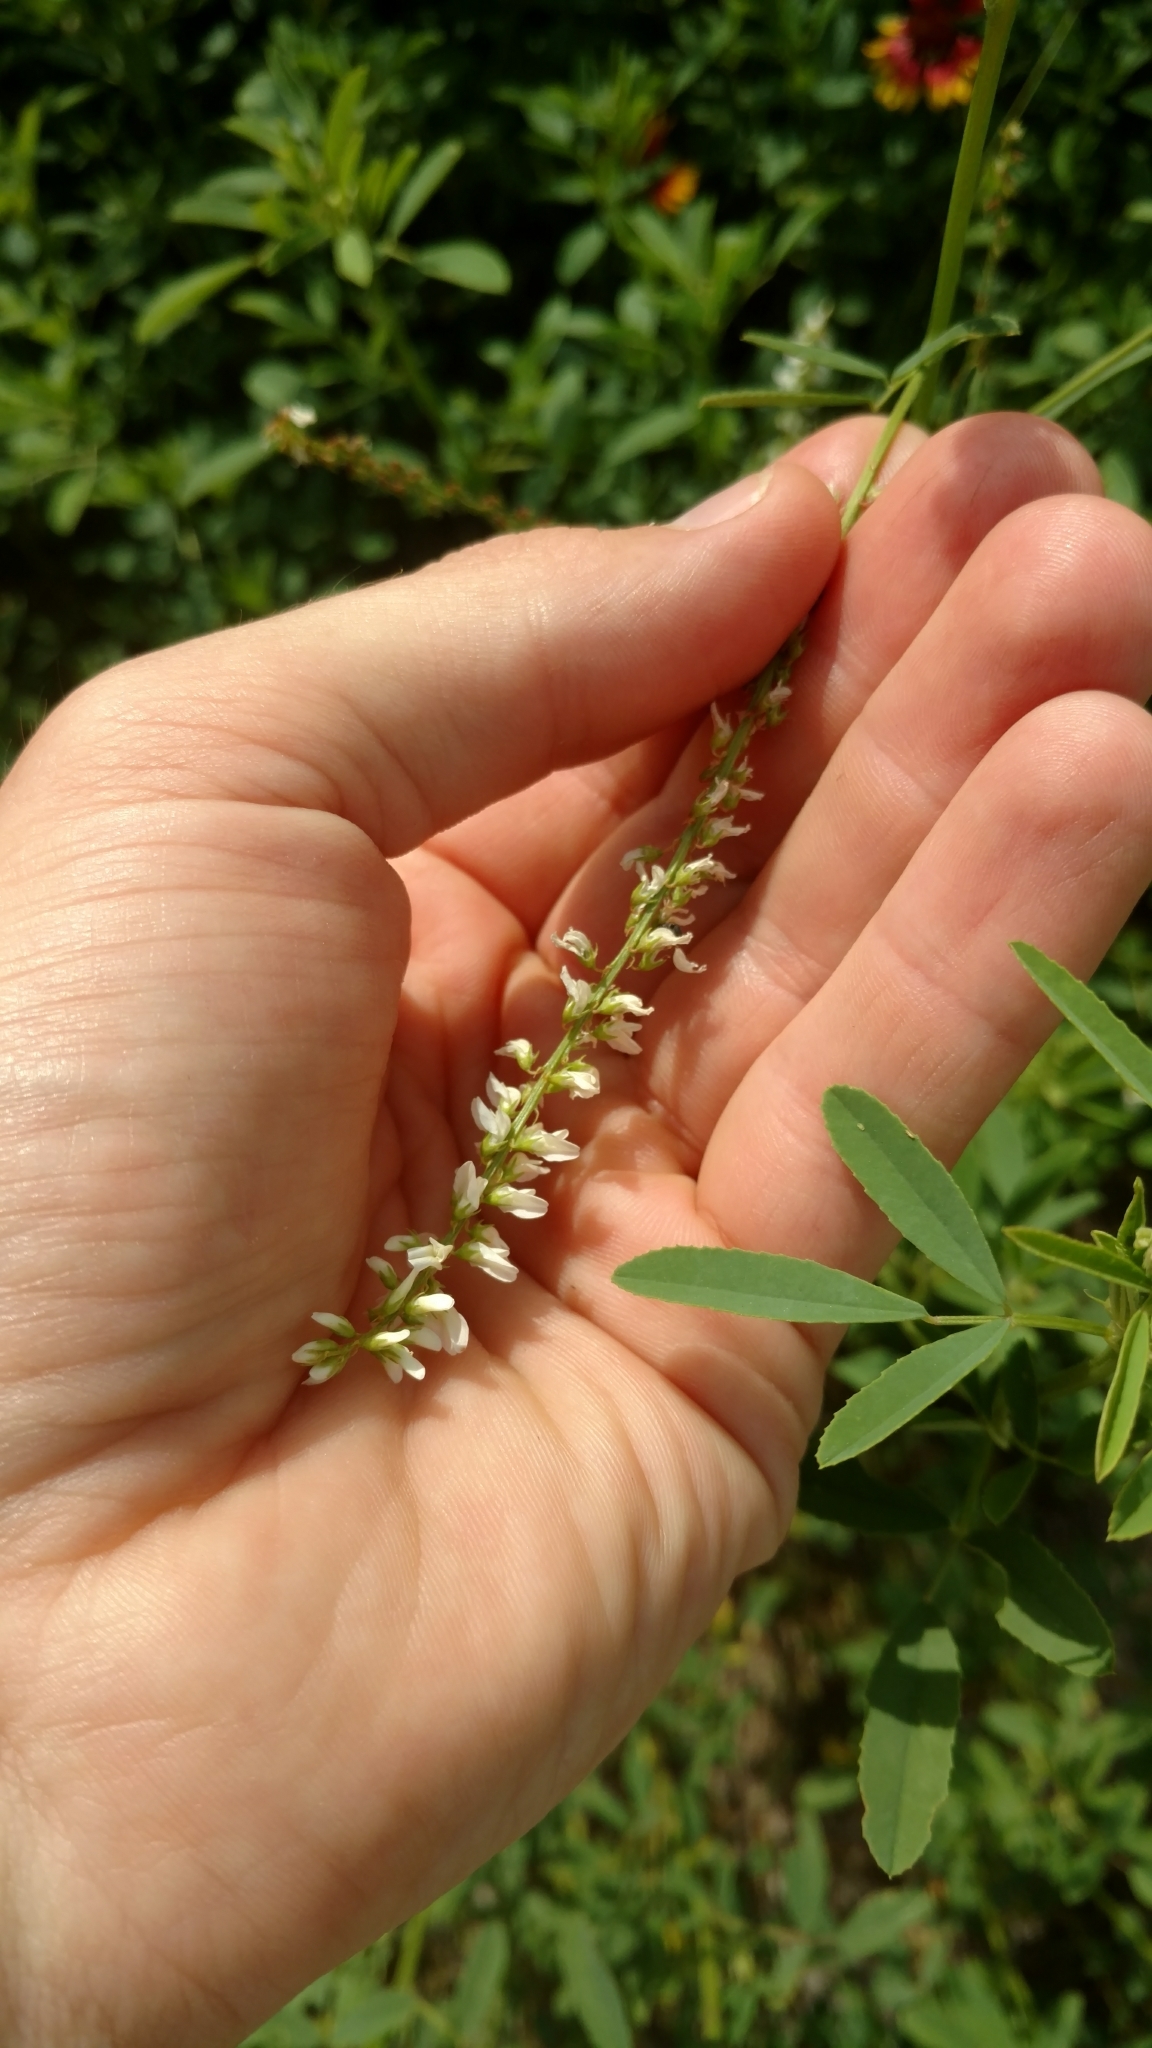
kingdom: Plantae
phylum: Tracheophyta
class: Magnoliopsida
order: Fabales
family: Fabaceae
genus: Melilotus
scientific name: Melilotus albus
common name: White melilot
